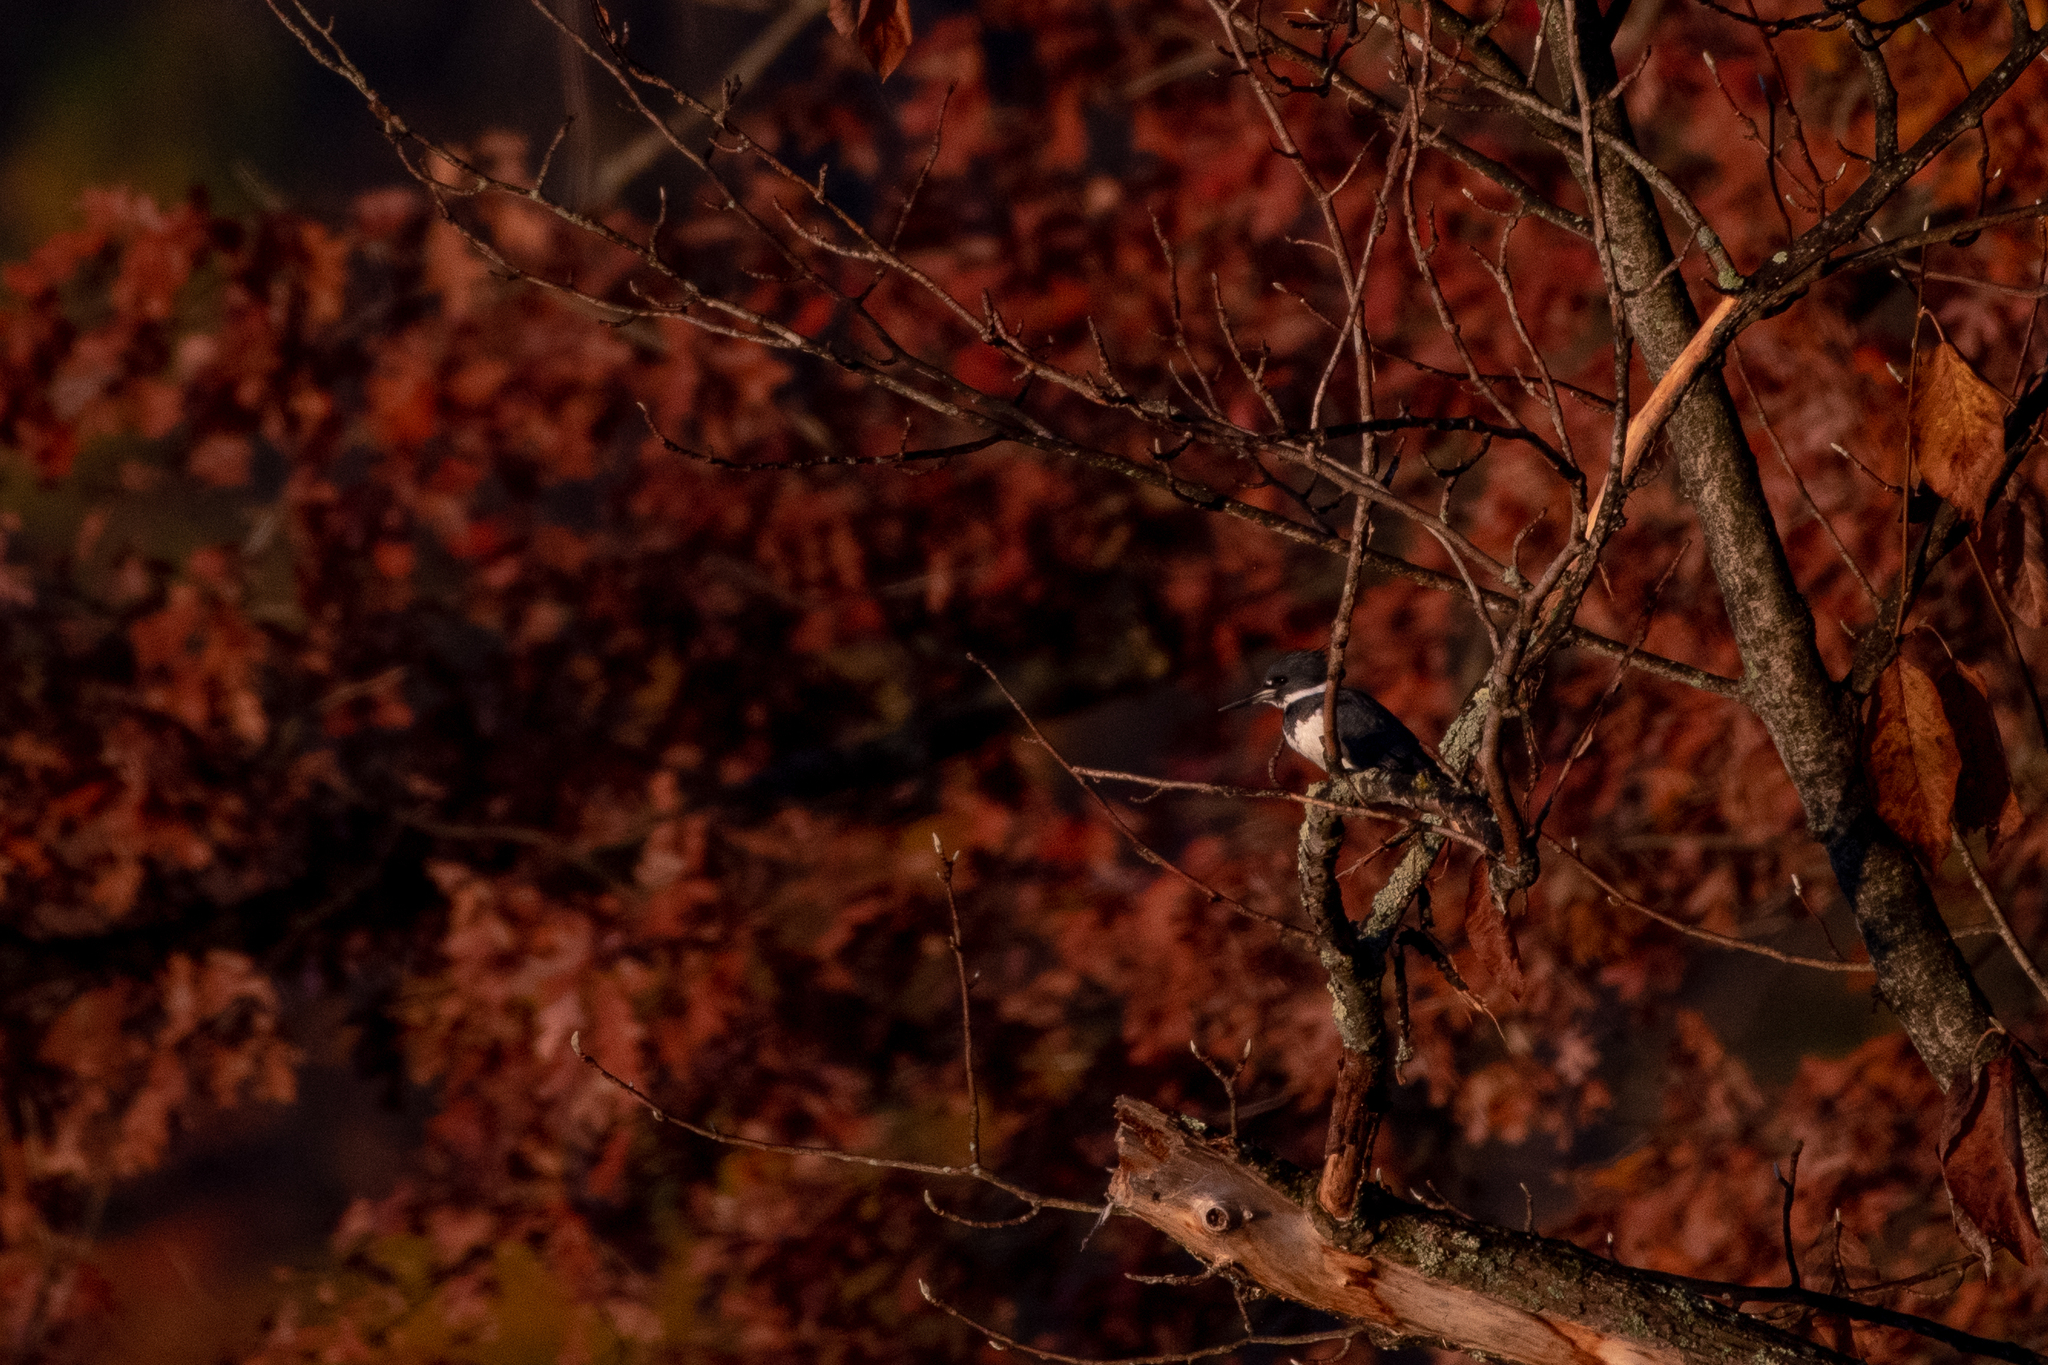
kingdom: Animalia
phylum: Chordata
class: Aves
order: Coraciiformes
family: Alcedinidae
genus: Megaceryle
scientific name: Megaceryle alcyon
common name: Belted kingfisher
